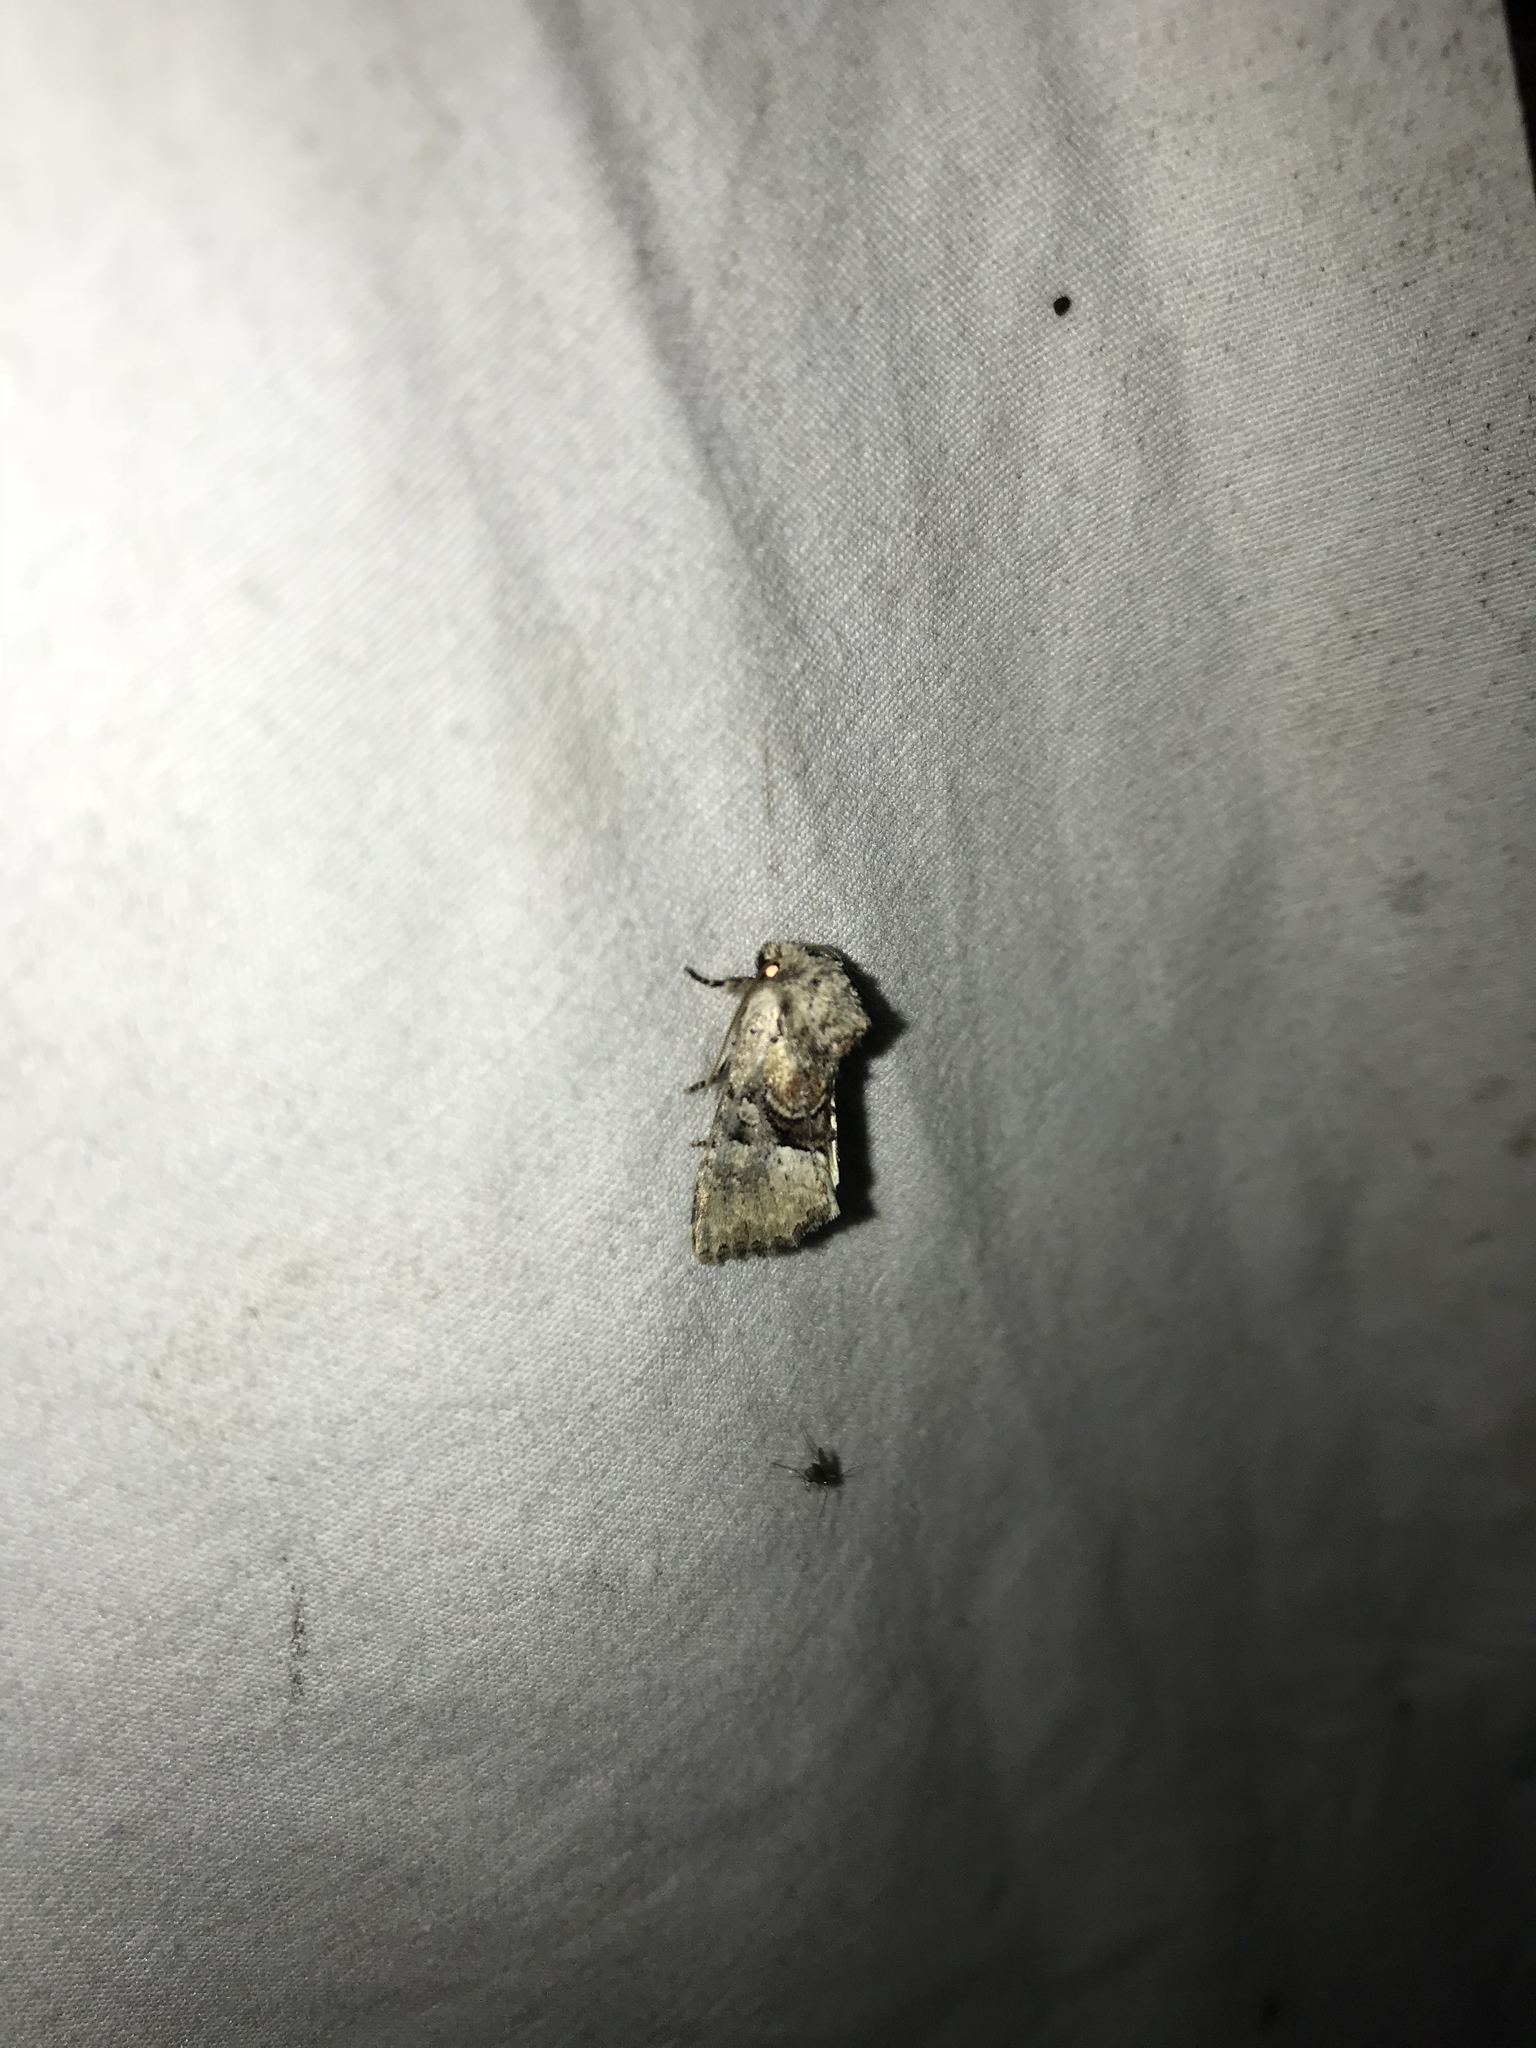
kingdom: Animalia
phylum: Arthropoda
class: Insecta
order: Lepidoptera
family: Noctuidae
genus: Meropleon
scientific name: Meropleon diversicolor
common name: Multicolored sedgeminer moth
